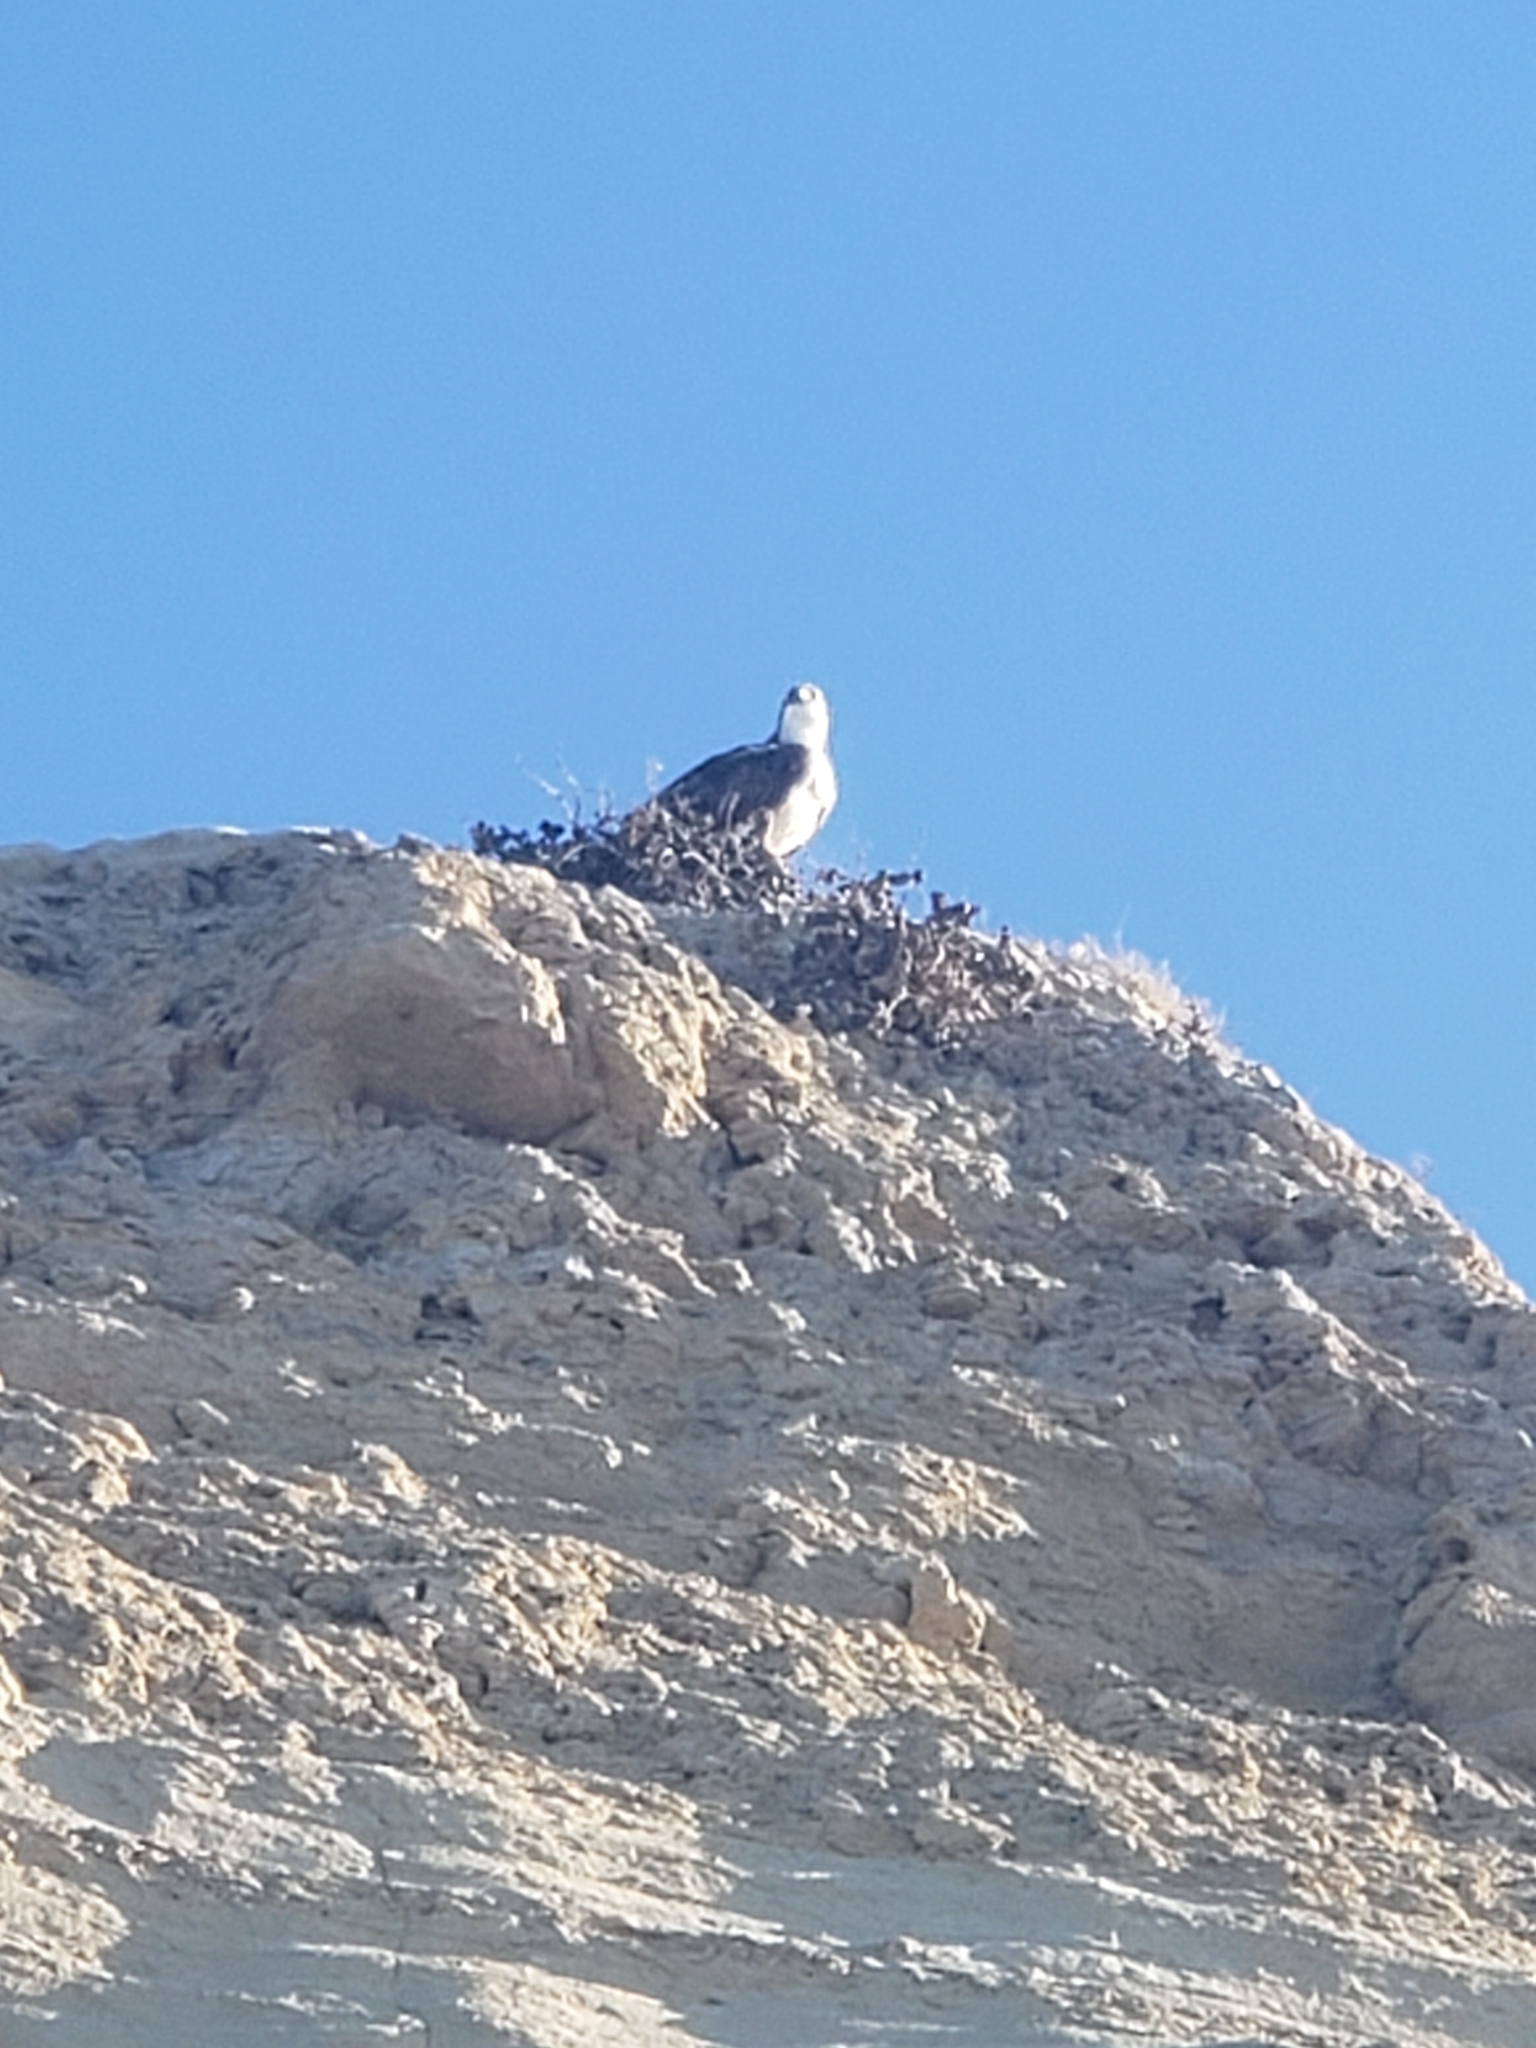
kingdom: Animalia
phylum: Chordata
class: Aves
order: Accipitriformes
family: Pandionidae
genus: Pandion
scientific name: Pandion haliaetus
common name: Osprey
